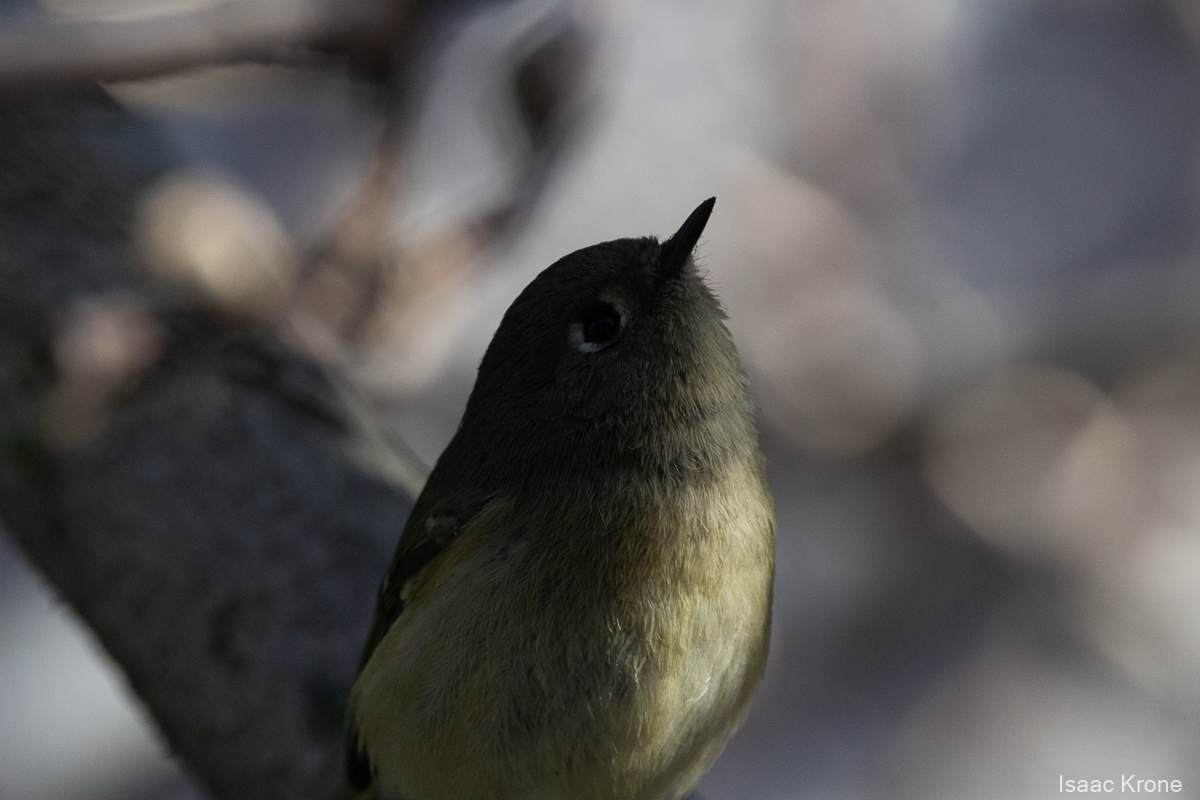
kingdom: Animalia
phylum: Chordata
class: Aves
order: Passeriformes
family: Regulidae
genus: Regulus
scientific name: Regulus calendula
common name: Ruby-crowned kinglet
